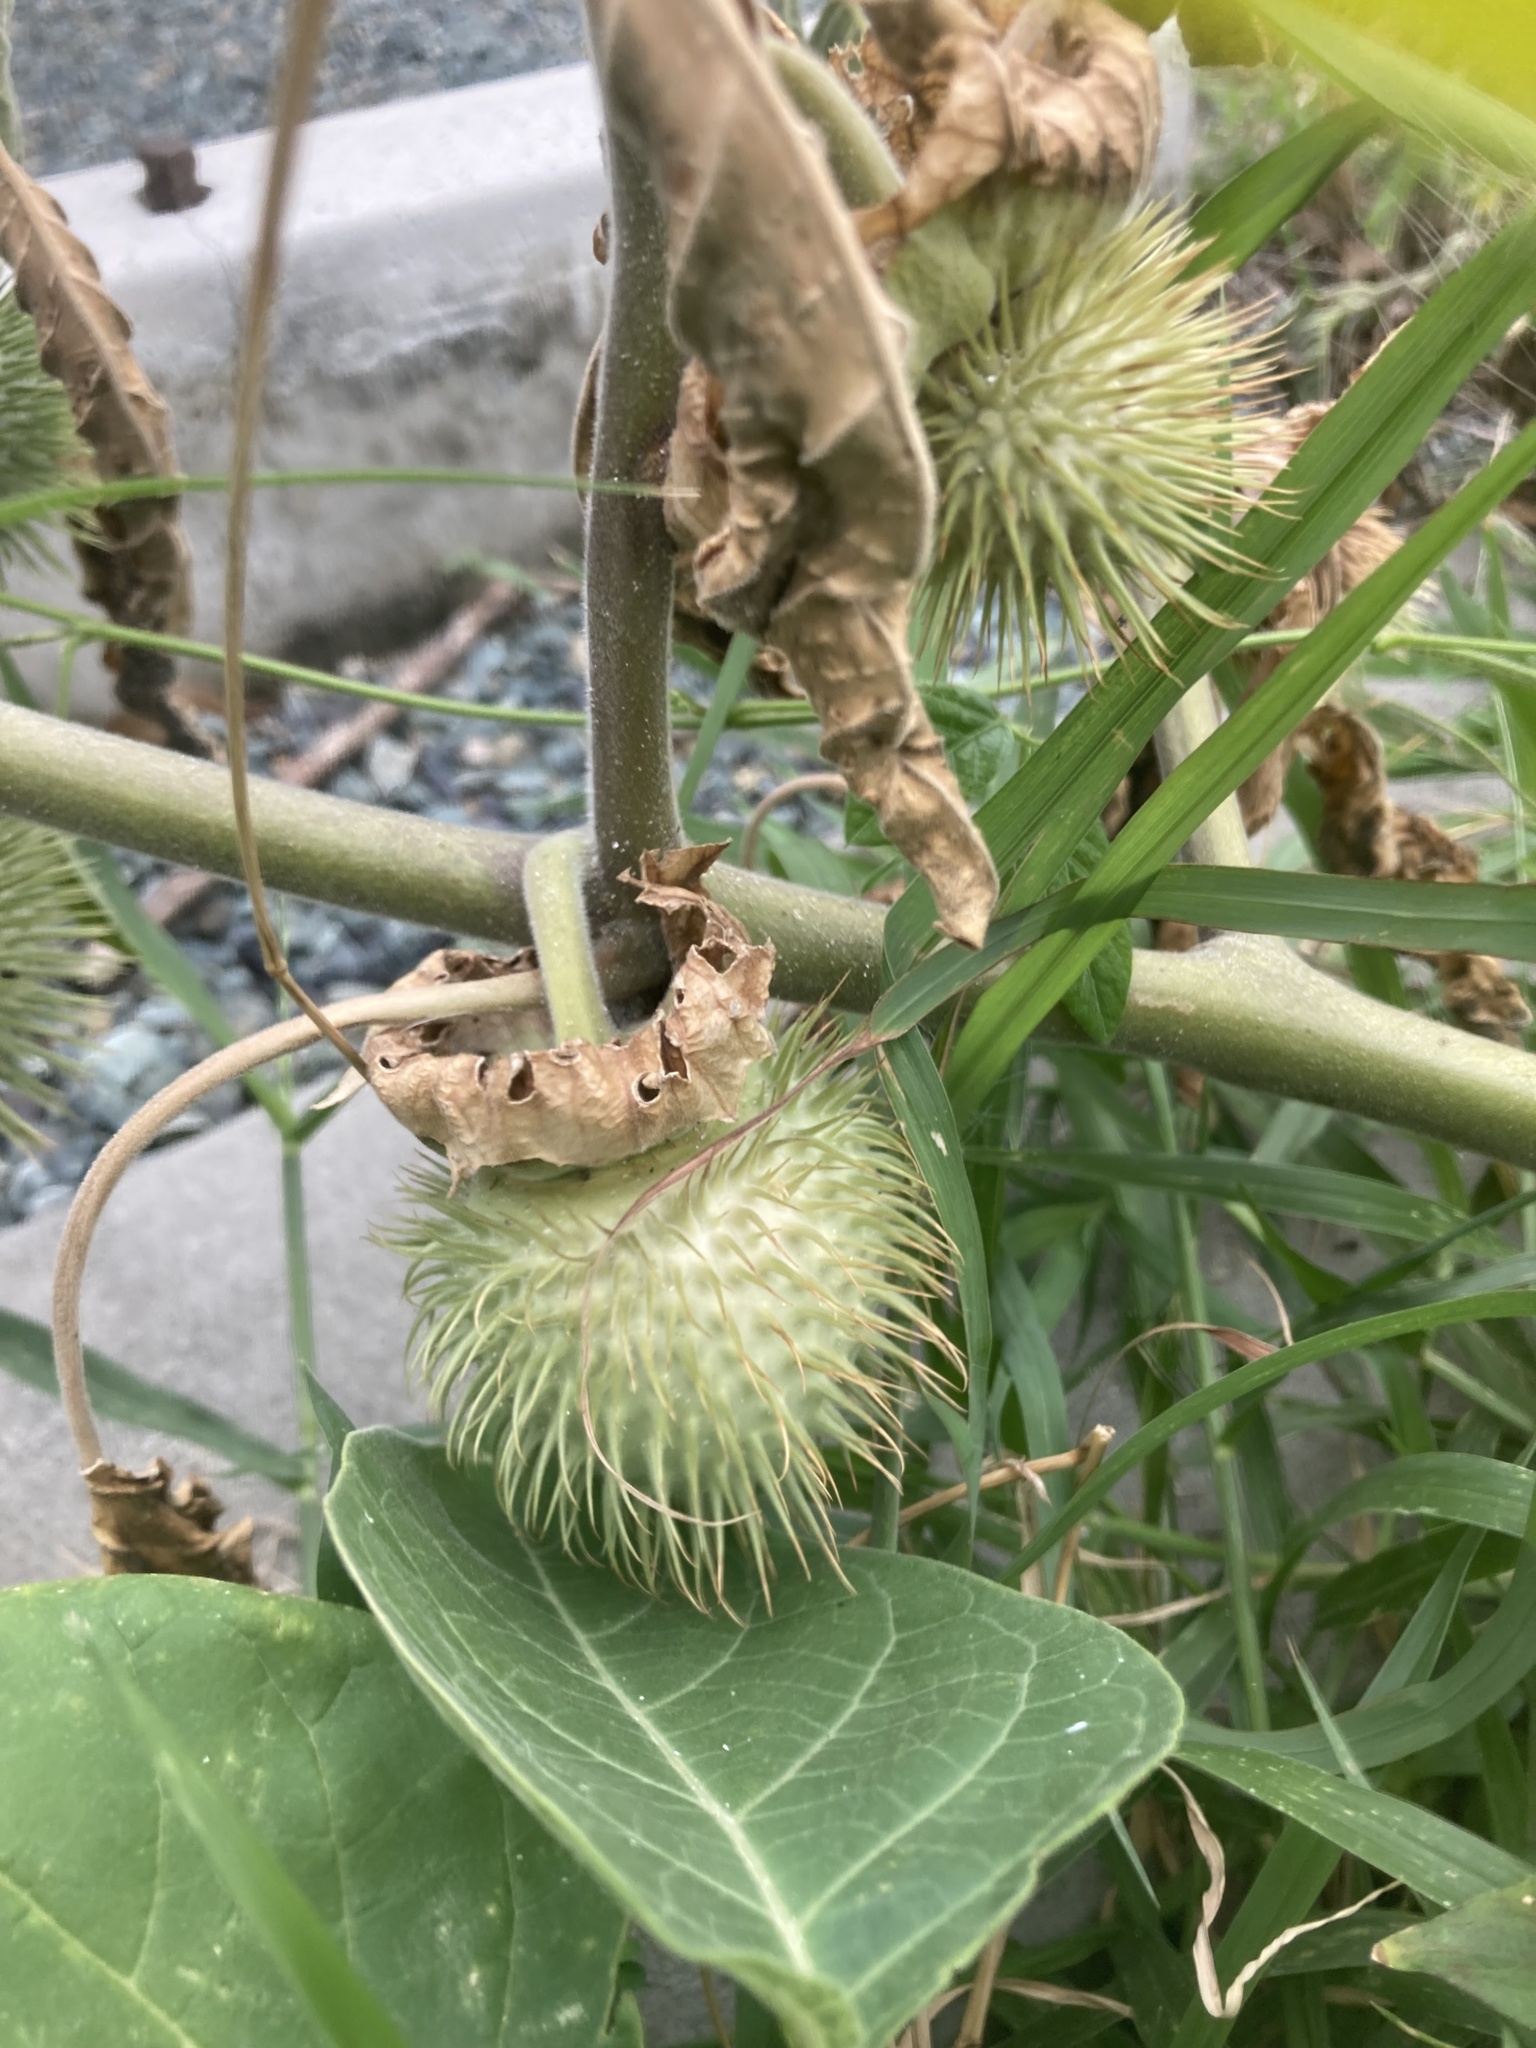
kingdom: Plantae
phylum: Tracheophyta
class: Magnoliopsida
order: Solanales
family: Solanaceae
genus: Datura
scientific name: Datura innoxia
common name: Downy thorn-apple
